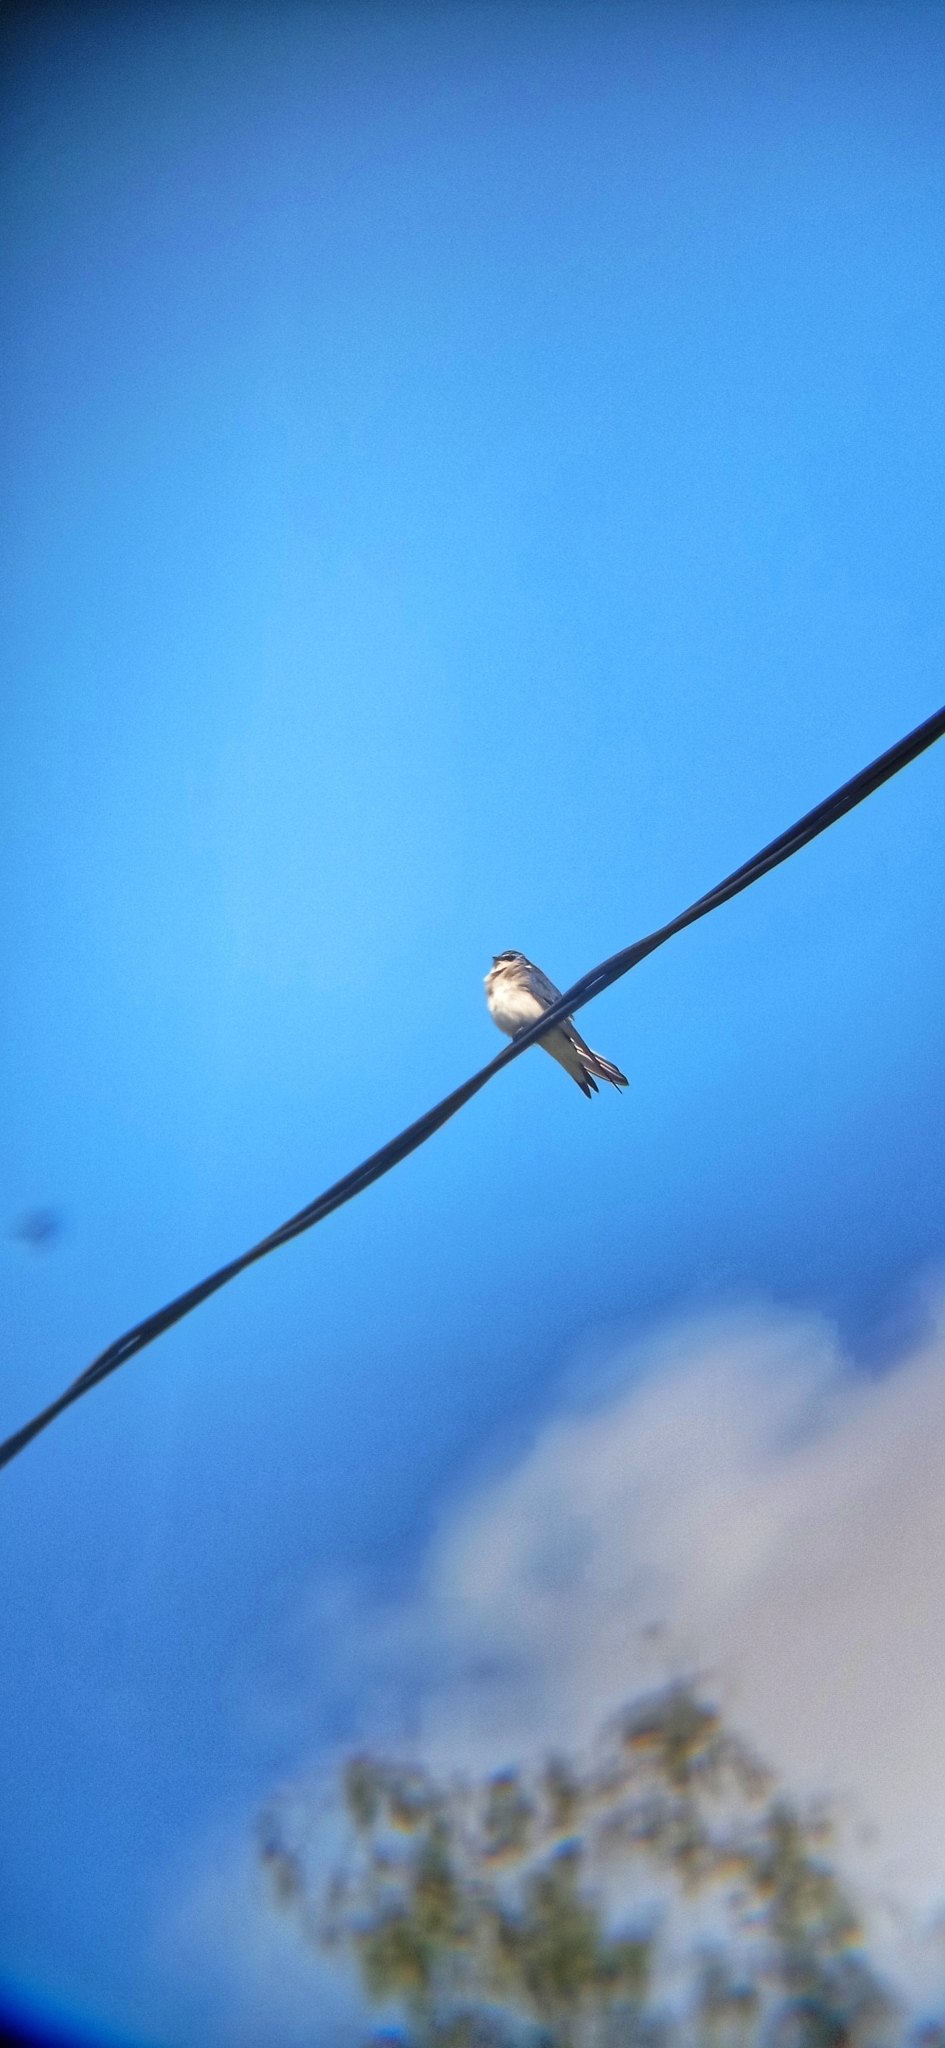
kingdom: Animalia
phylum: Chordata
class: Aves
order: Passeriformes
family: Hirundinidae
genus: Tachycineta
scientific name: Tachycineta leucopyga
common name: Chilean swallow
